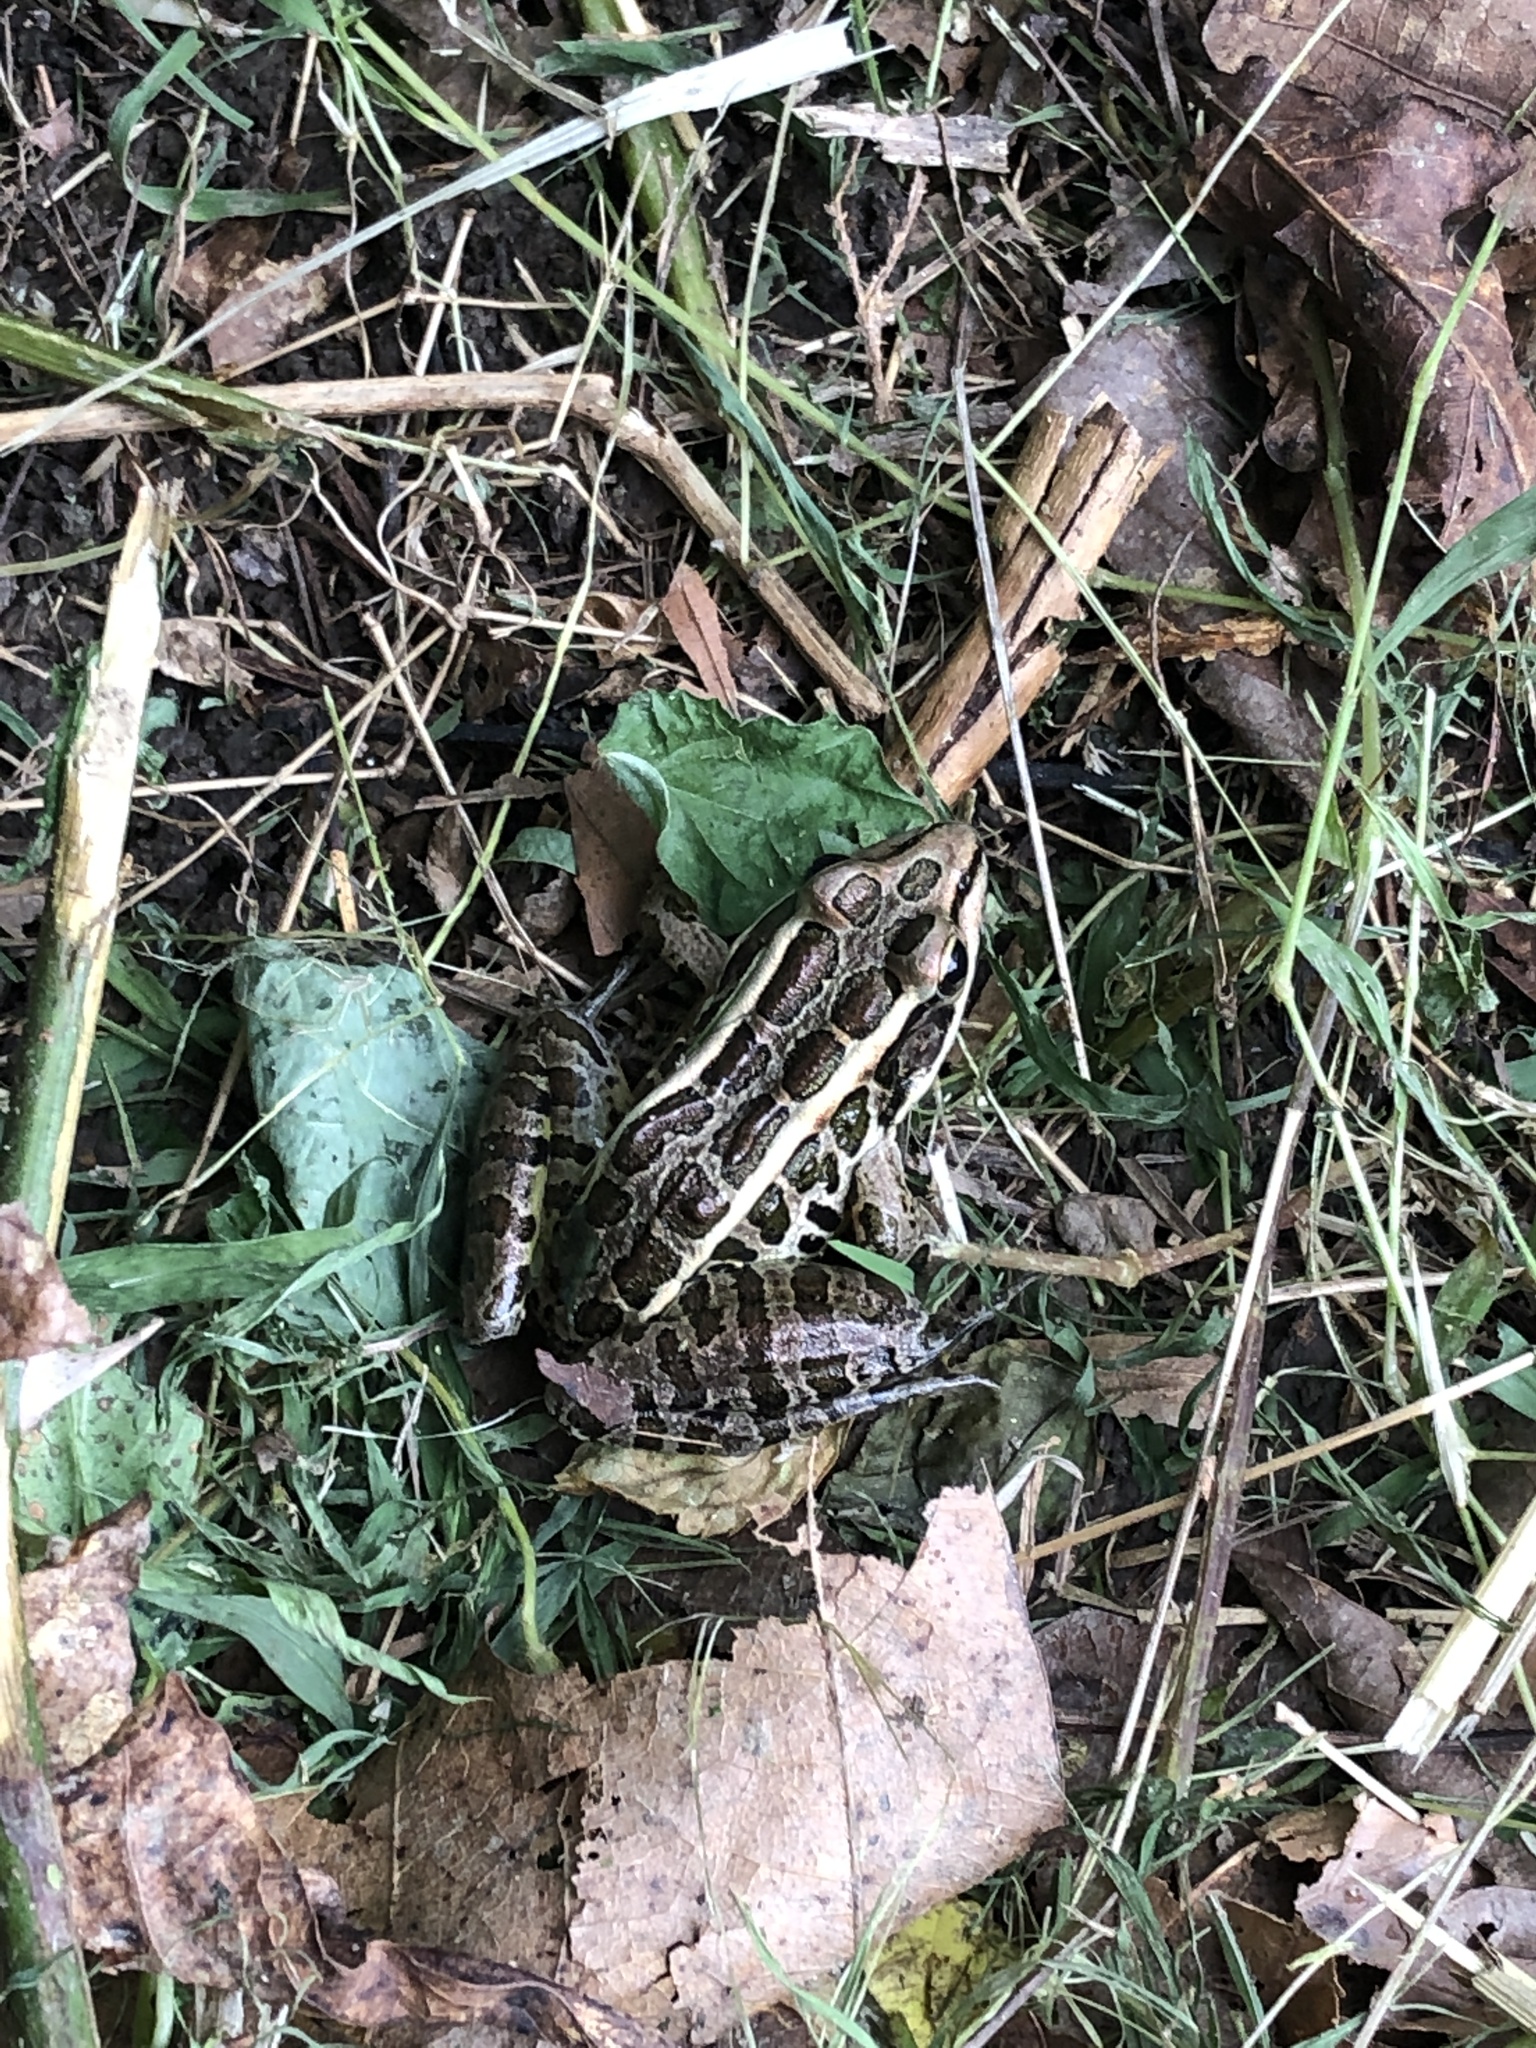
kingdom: Animalia
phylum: Chordata
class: Amphibia
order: Anura
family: Ranidae
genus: Lithobates
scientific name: Lithobates palustris
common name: Pickerel frog
